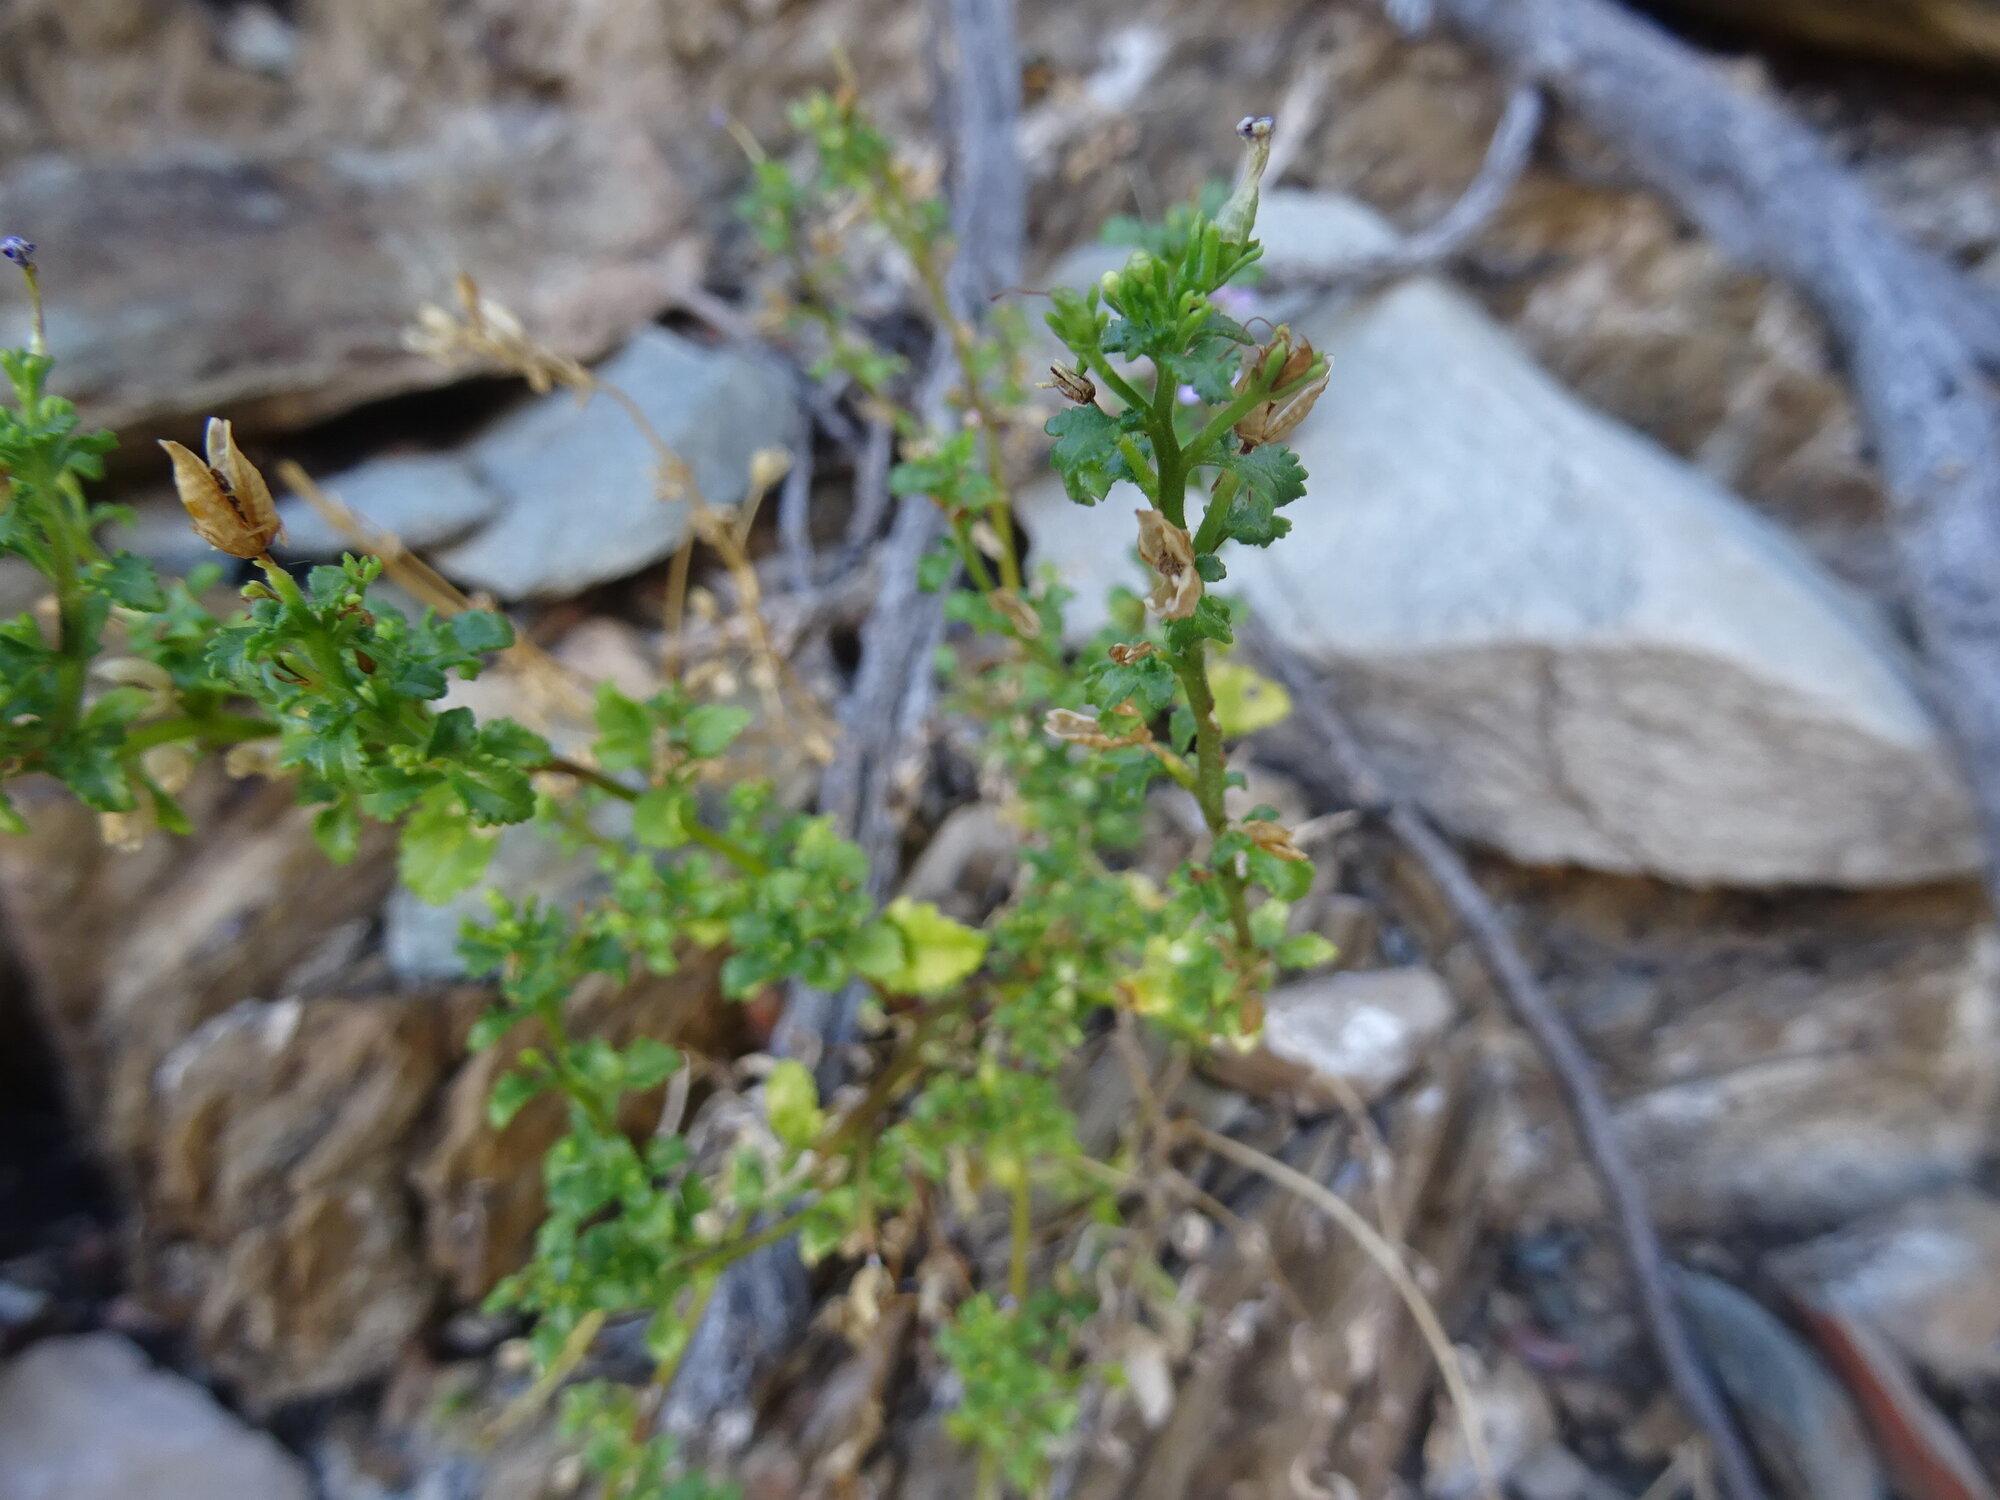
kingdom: Plantae
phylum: Tracheophyta
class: Magnoliopsida
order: Lamiales
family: Scrophulariaceae
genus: Sutera
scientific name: Sutera foetida
